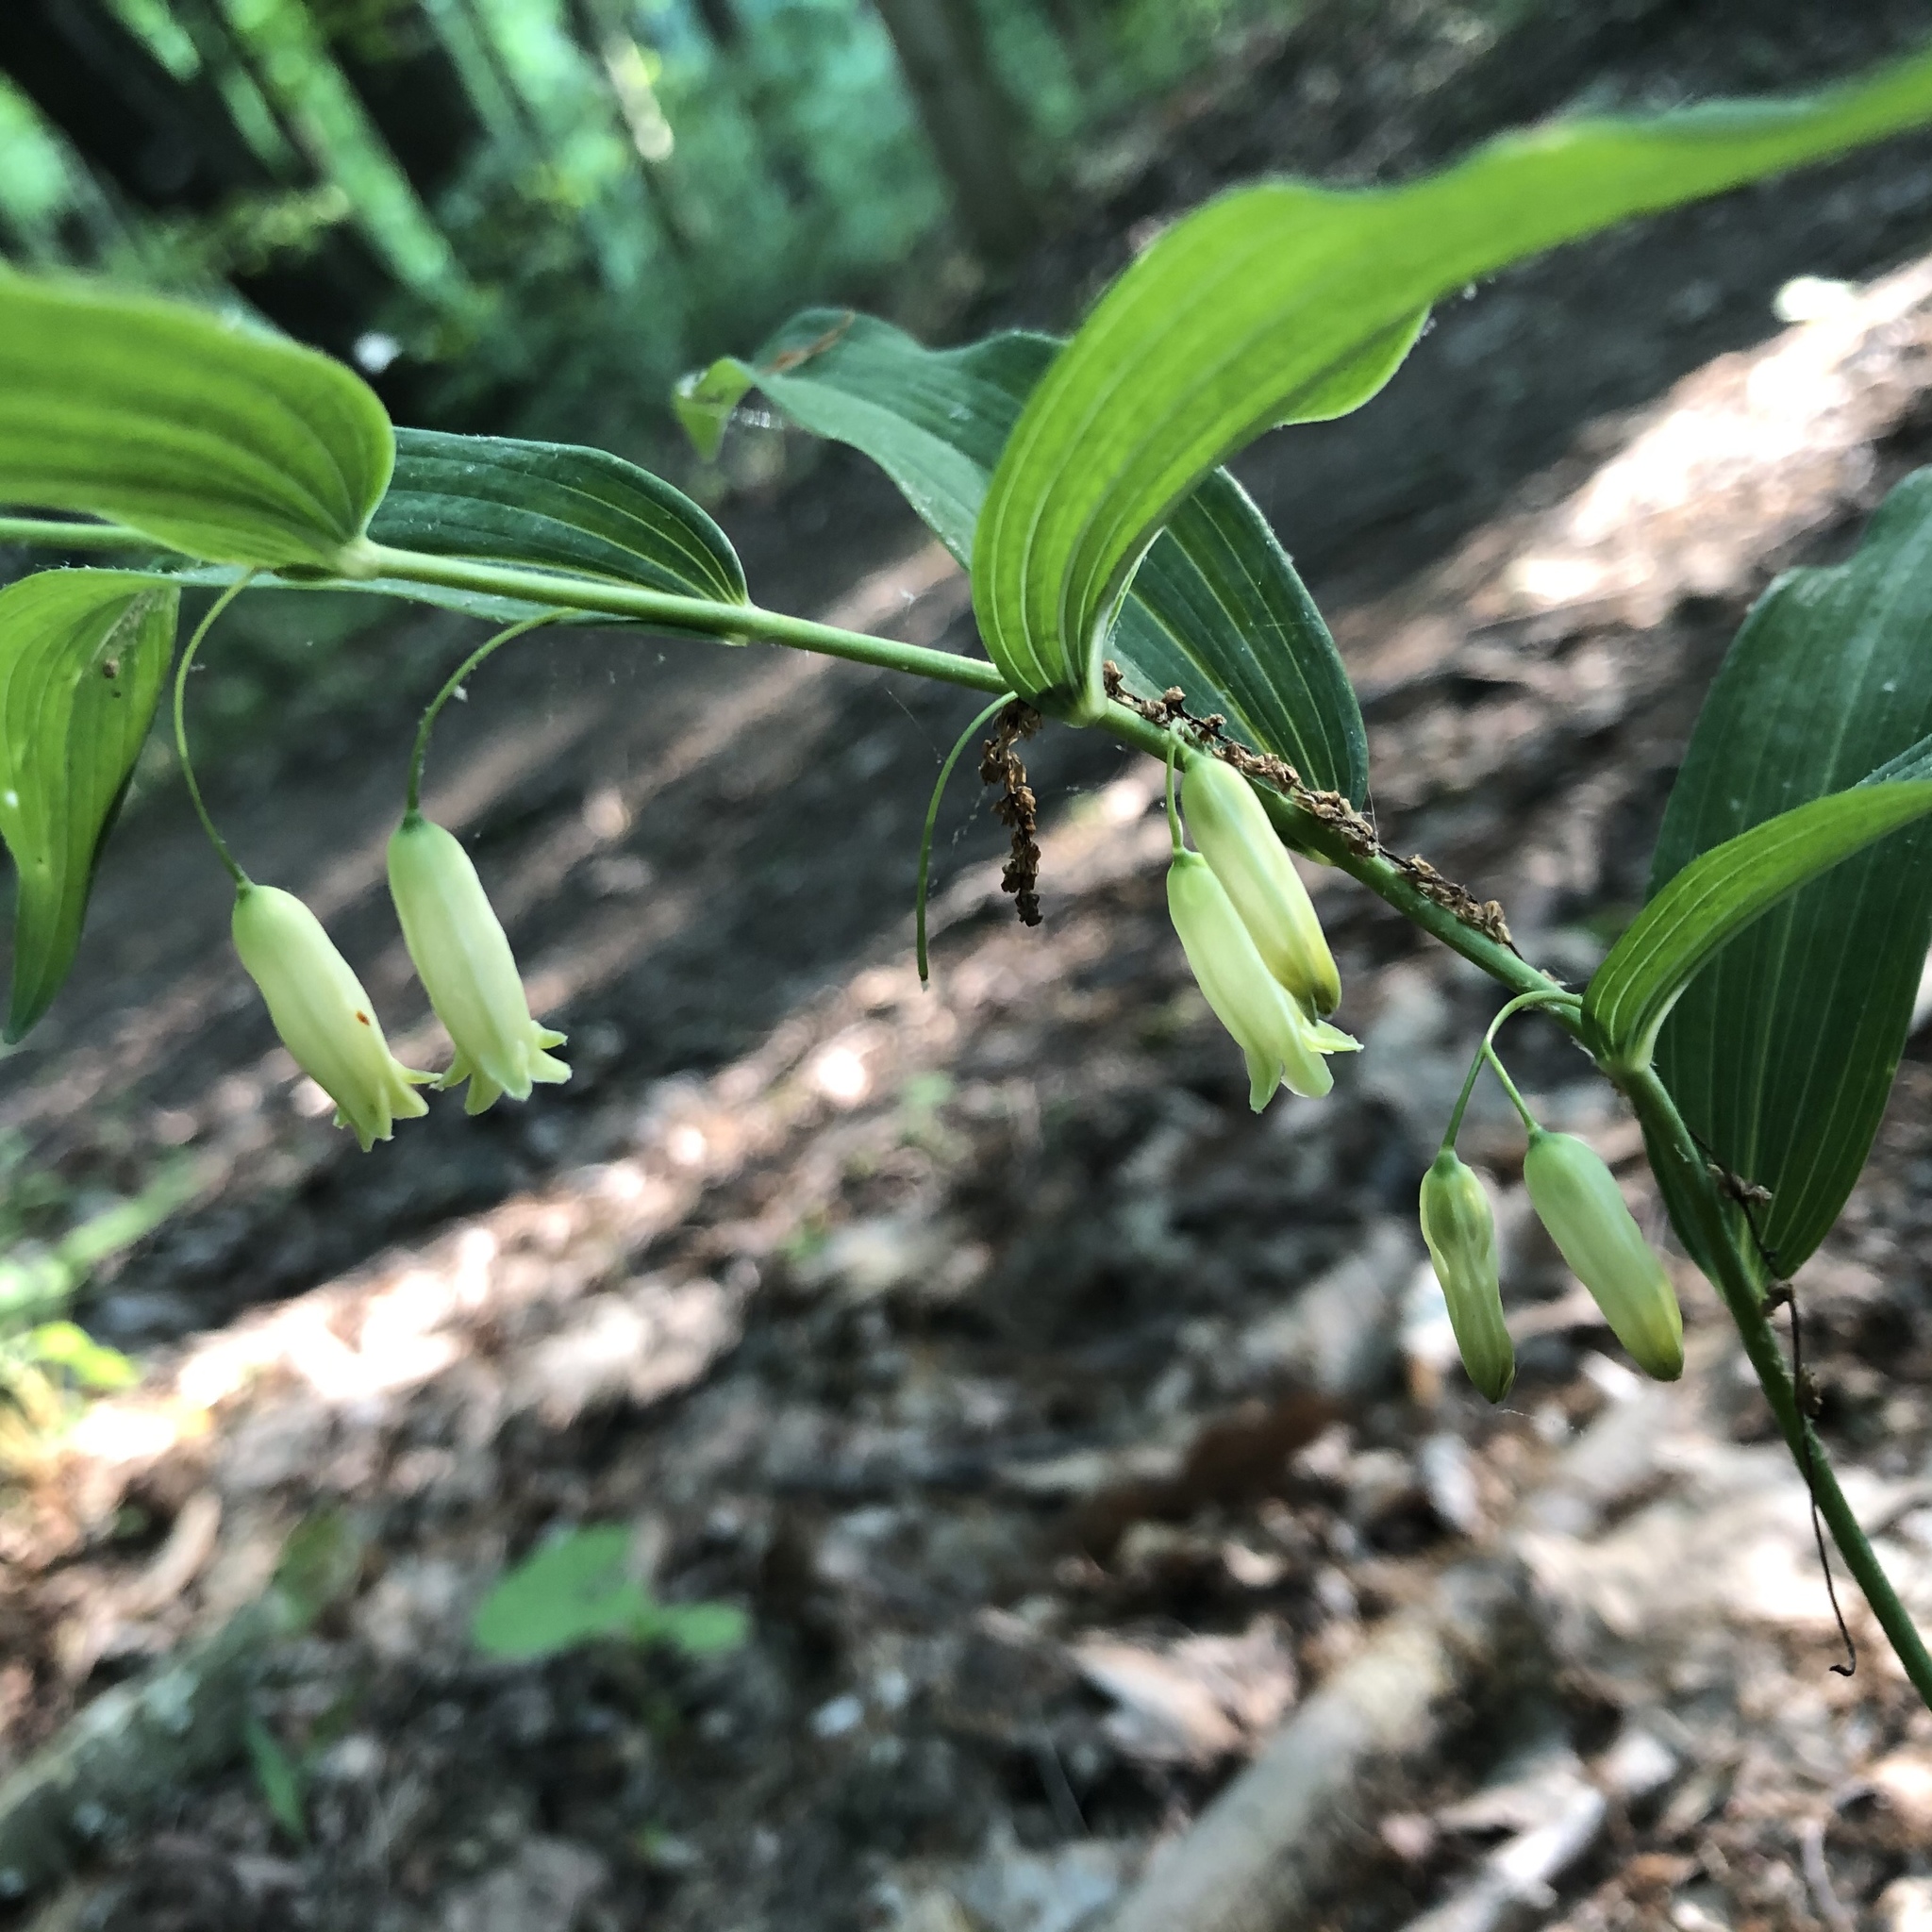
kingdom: Plantae
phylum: Tracheophyta
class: Liliopsida
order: Asparagales
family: Asparagaceae
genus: Polygonatum
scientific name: Polygonatum biflorum
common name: American solomon's-seal
